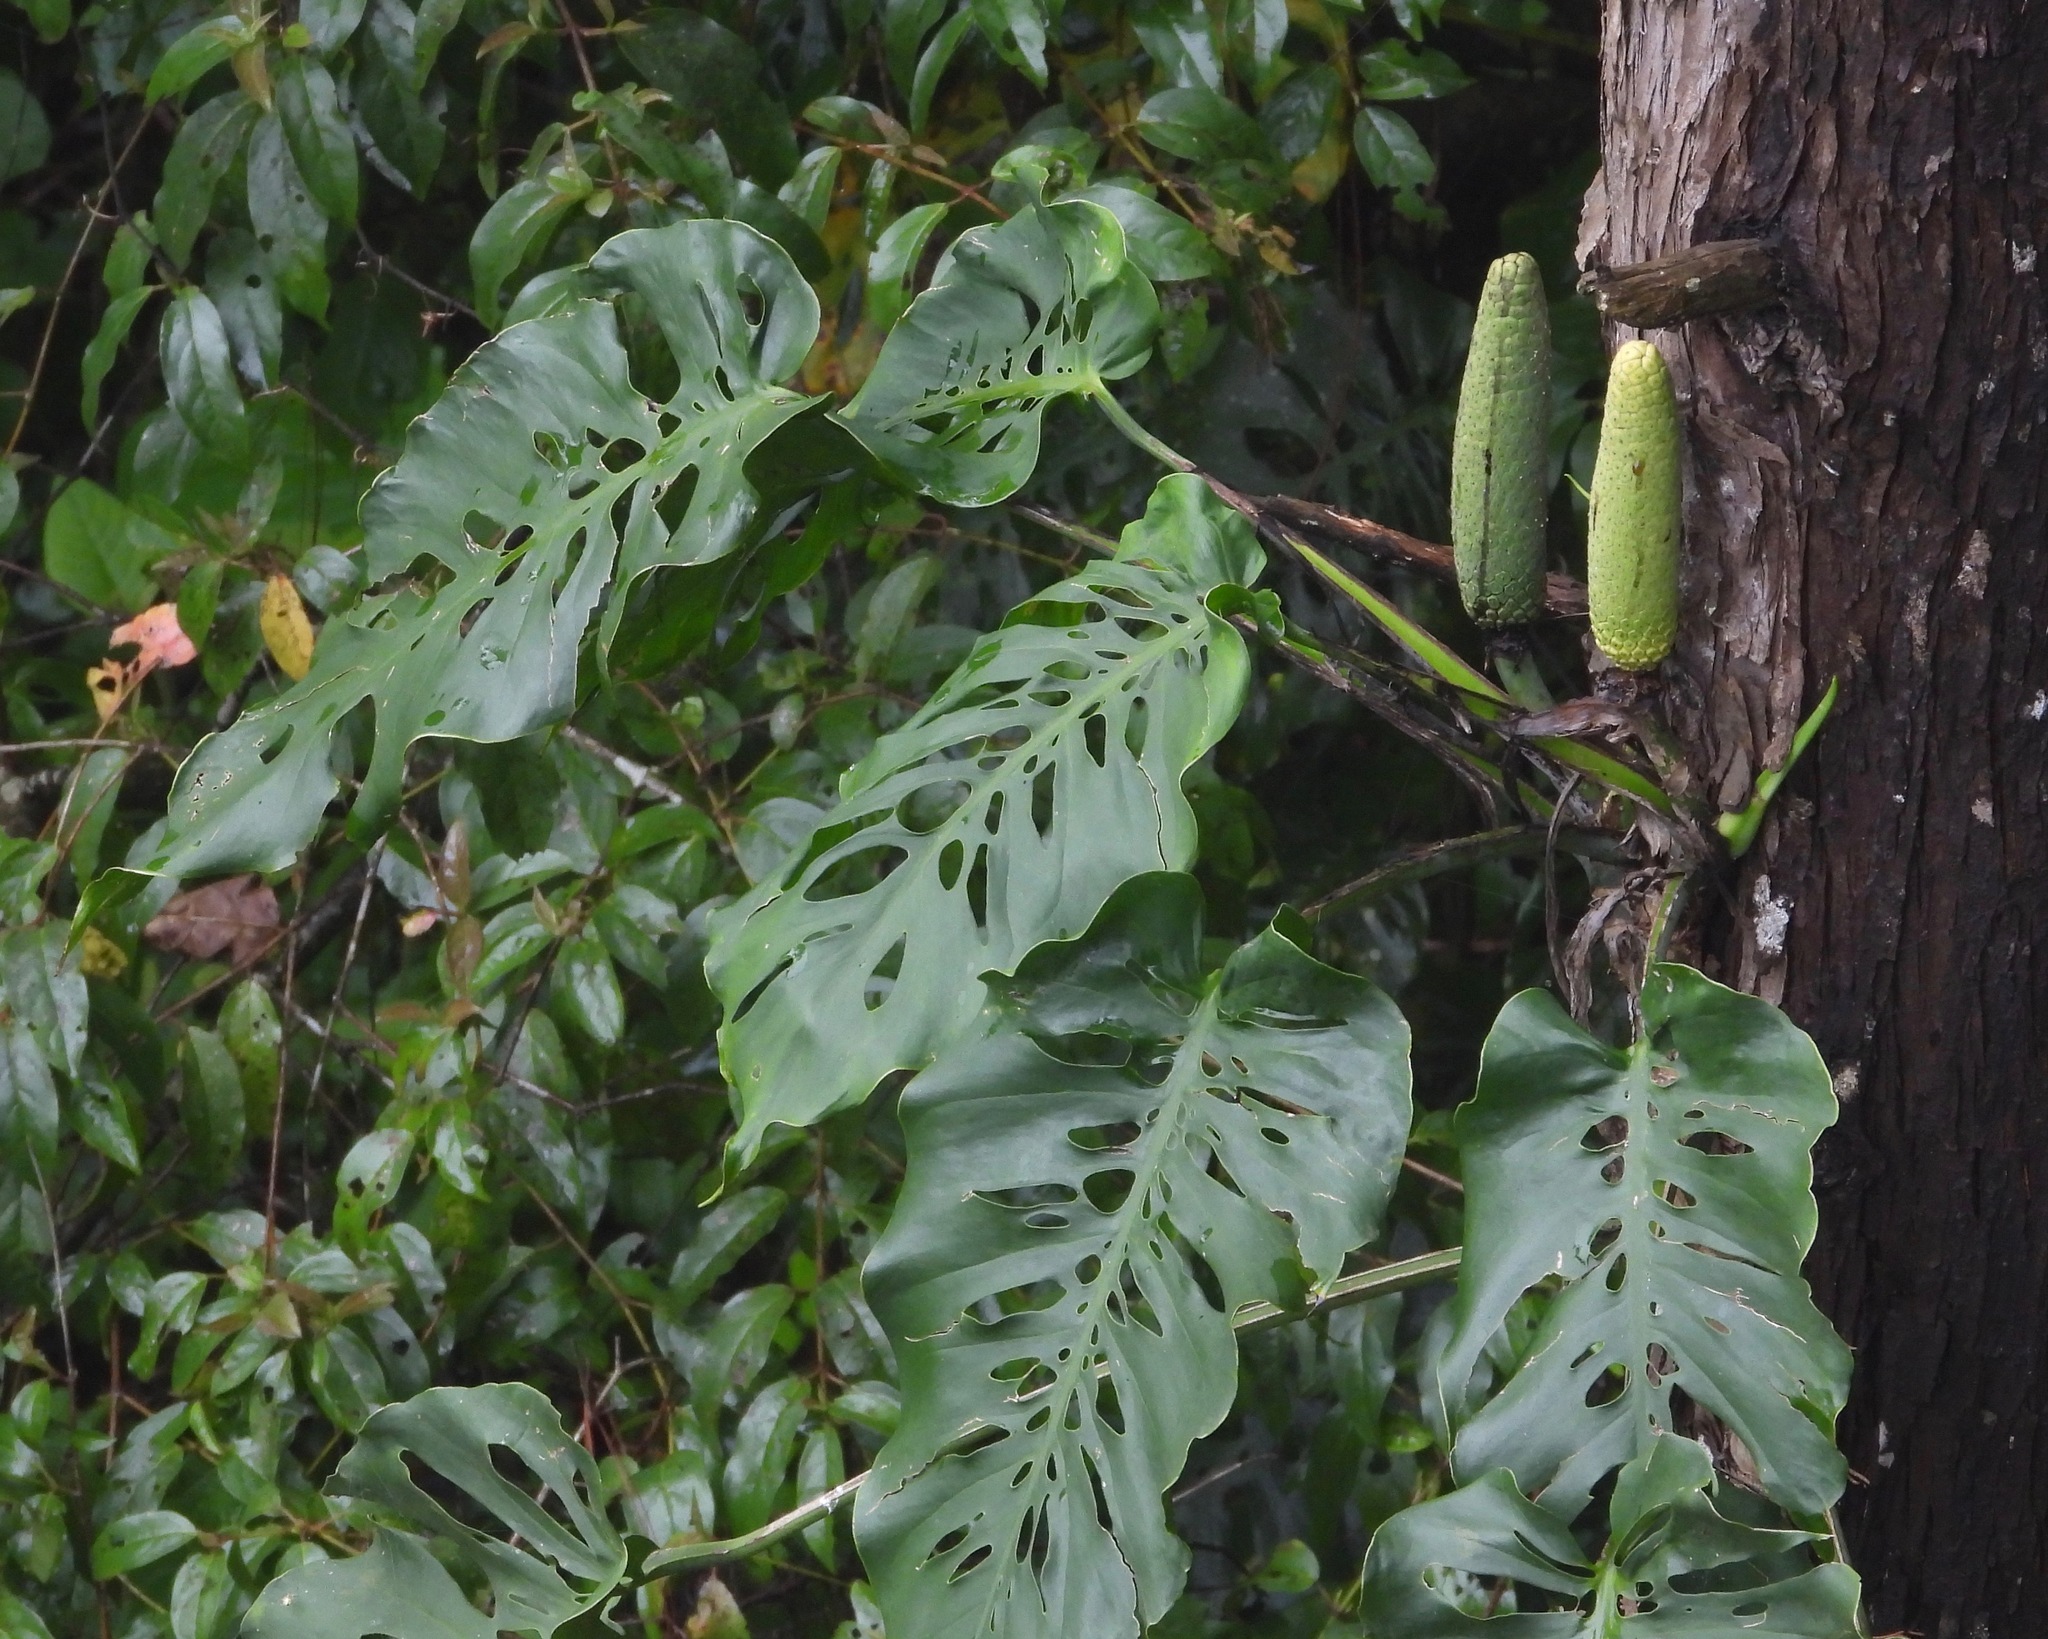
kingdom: Plantae
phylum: Tracheophyta
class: Liliopsida
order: Alismatales
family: Araceae
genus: Monstera
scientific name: Monstera siltepecana
